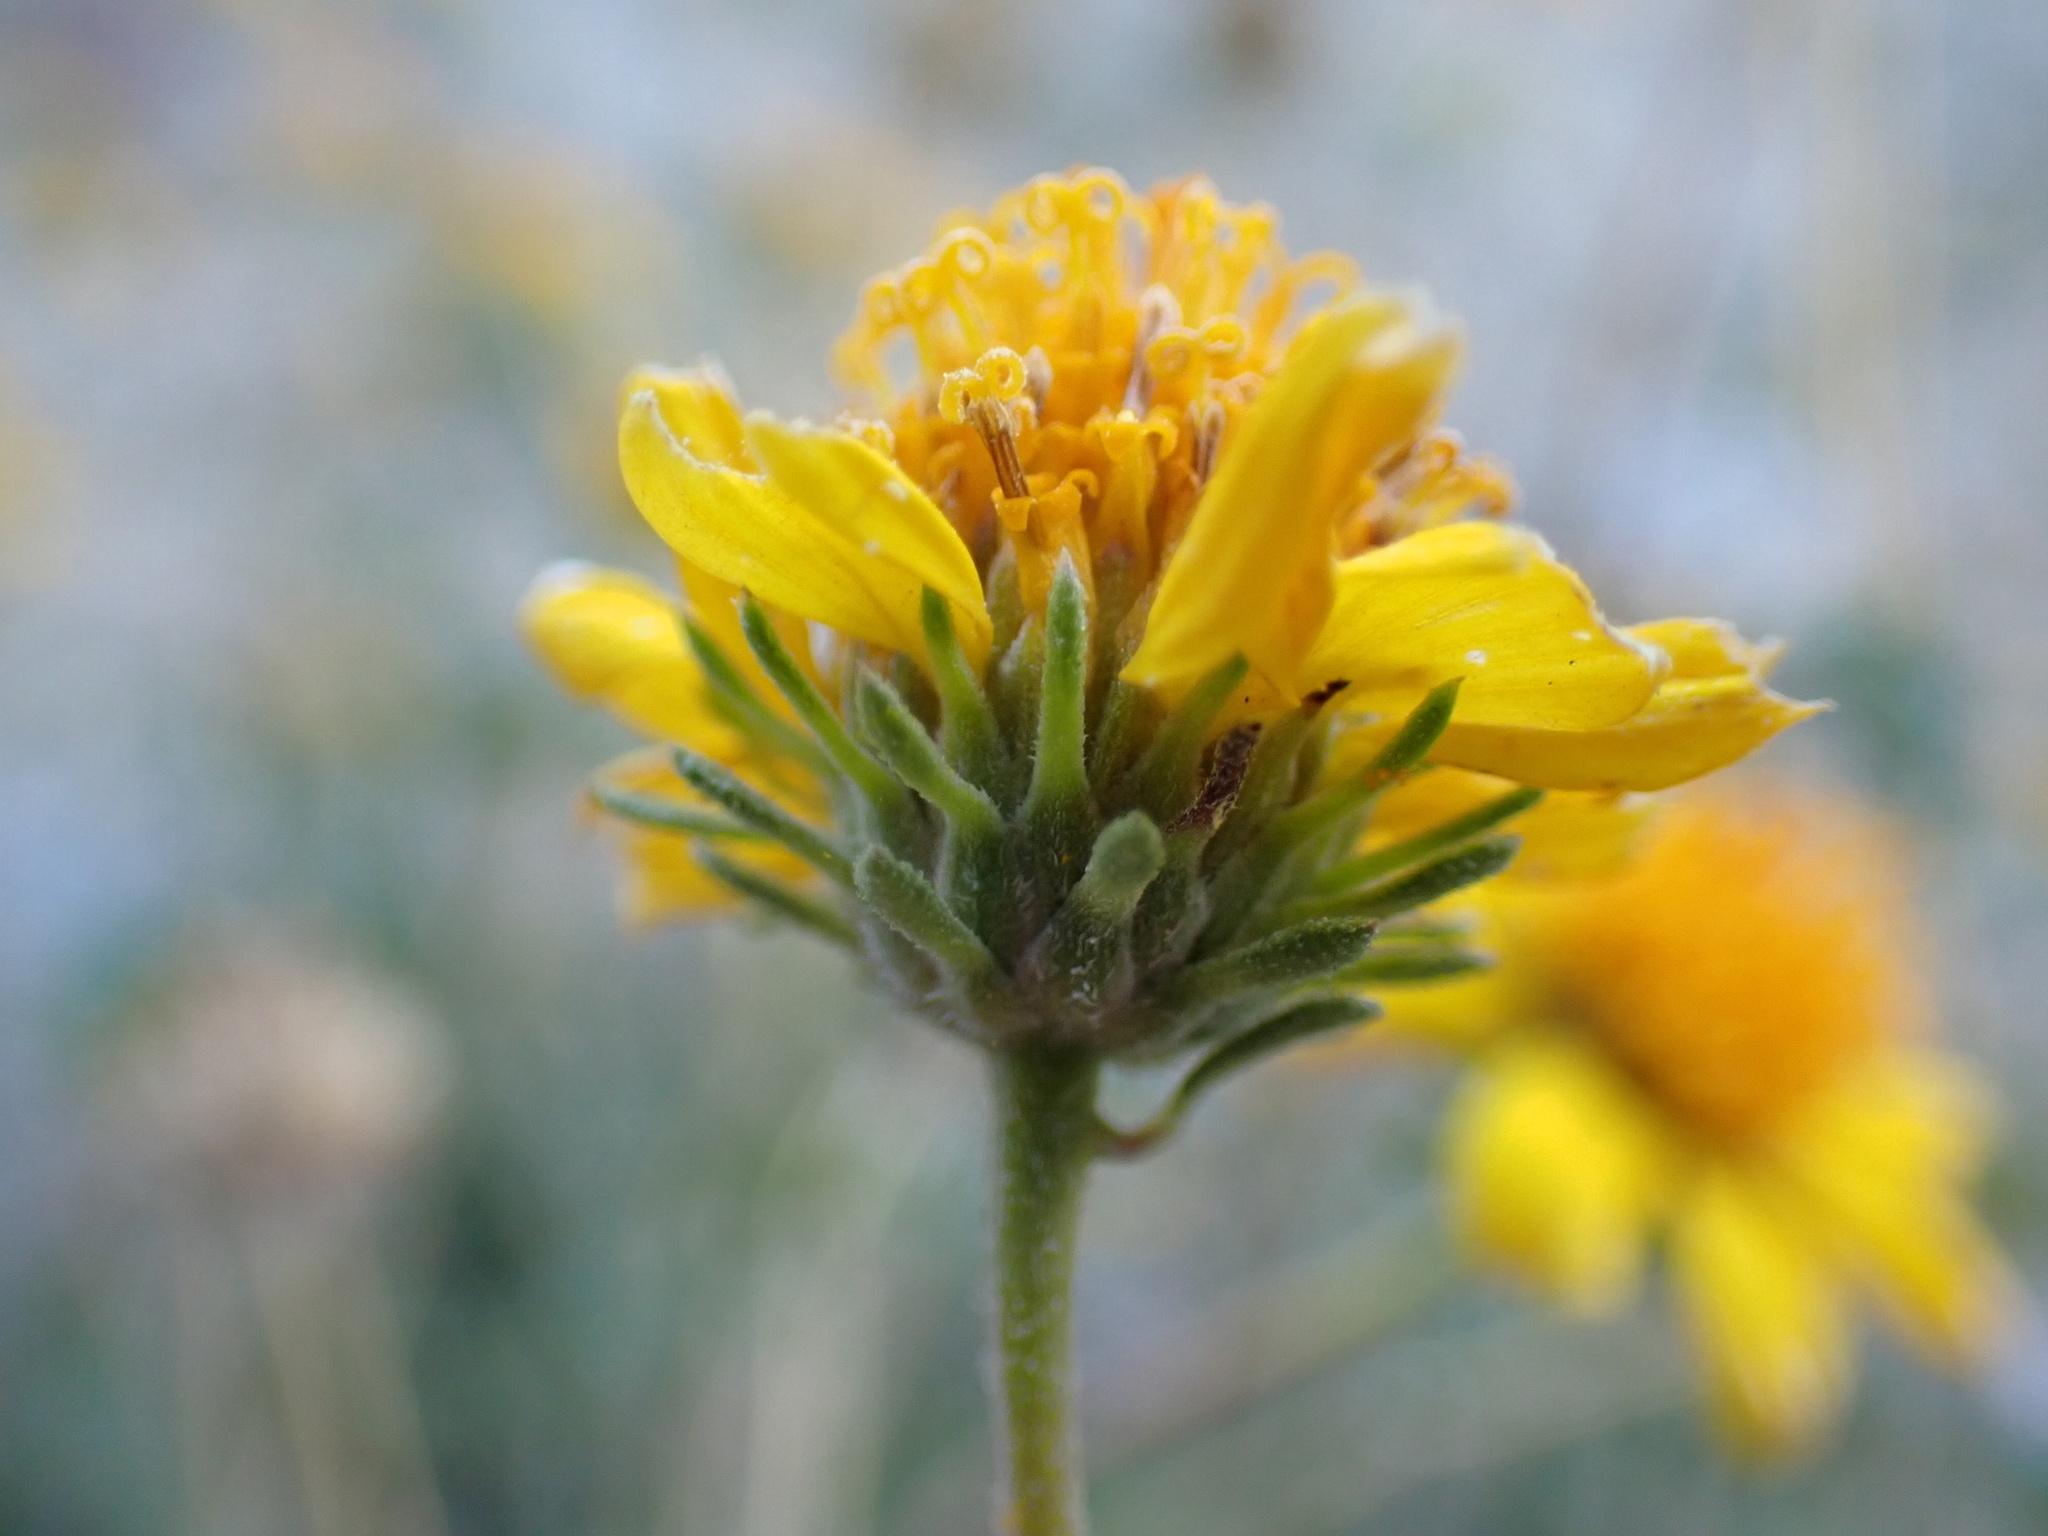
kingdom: Plantae
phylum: Tracheophyta
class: Magnoliopsida
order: Asterales
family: Asteraceae
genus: Bahiopsis
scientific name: Bahiopsis parishii
